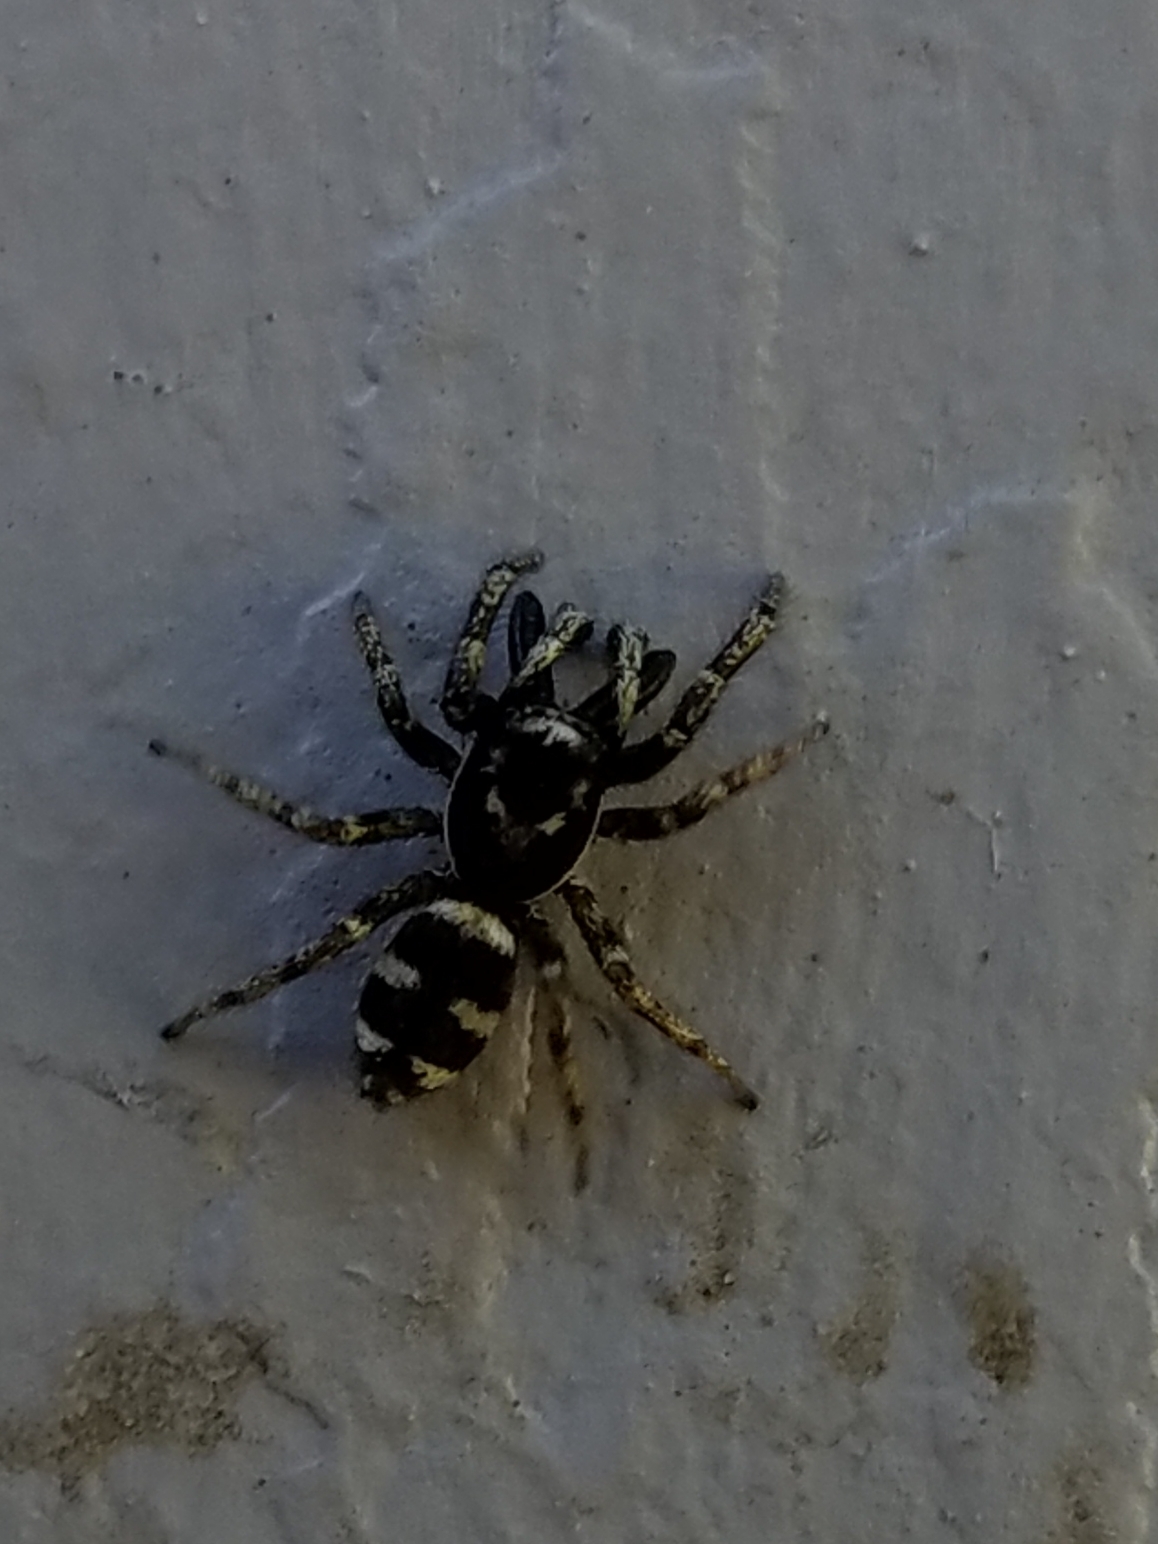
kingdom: Animalia
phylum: Arthropoda
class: Arachnida
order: Araneae
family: Salticidae
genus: Salticus
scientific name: Salticus scenicus
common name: Zebra jumper
